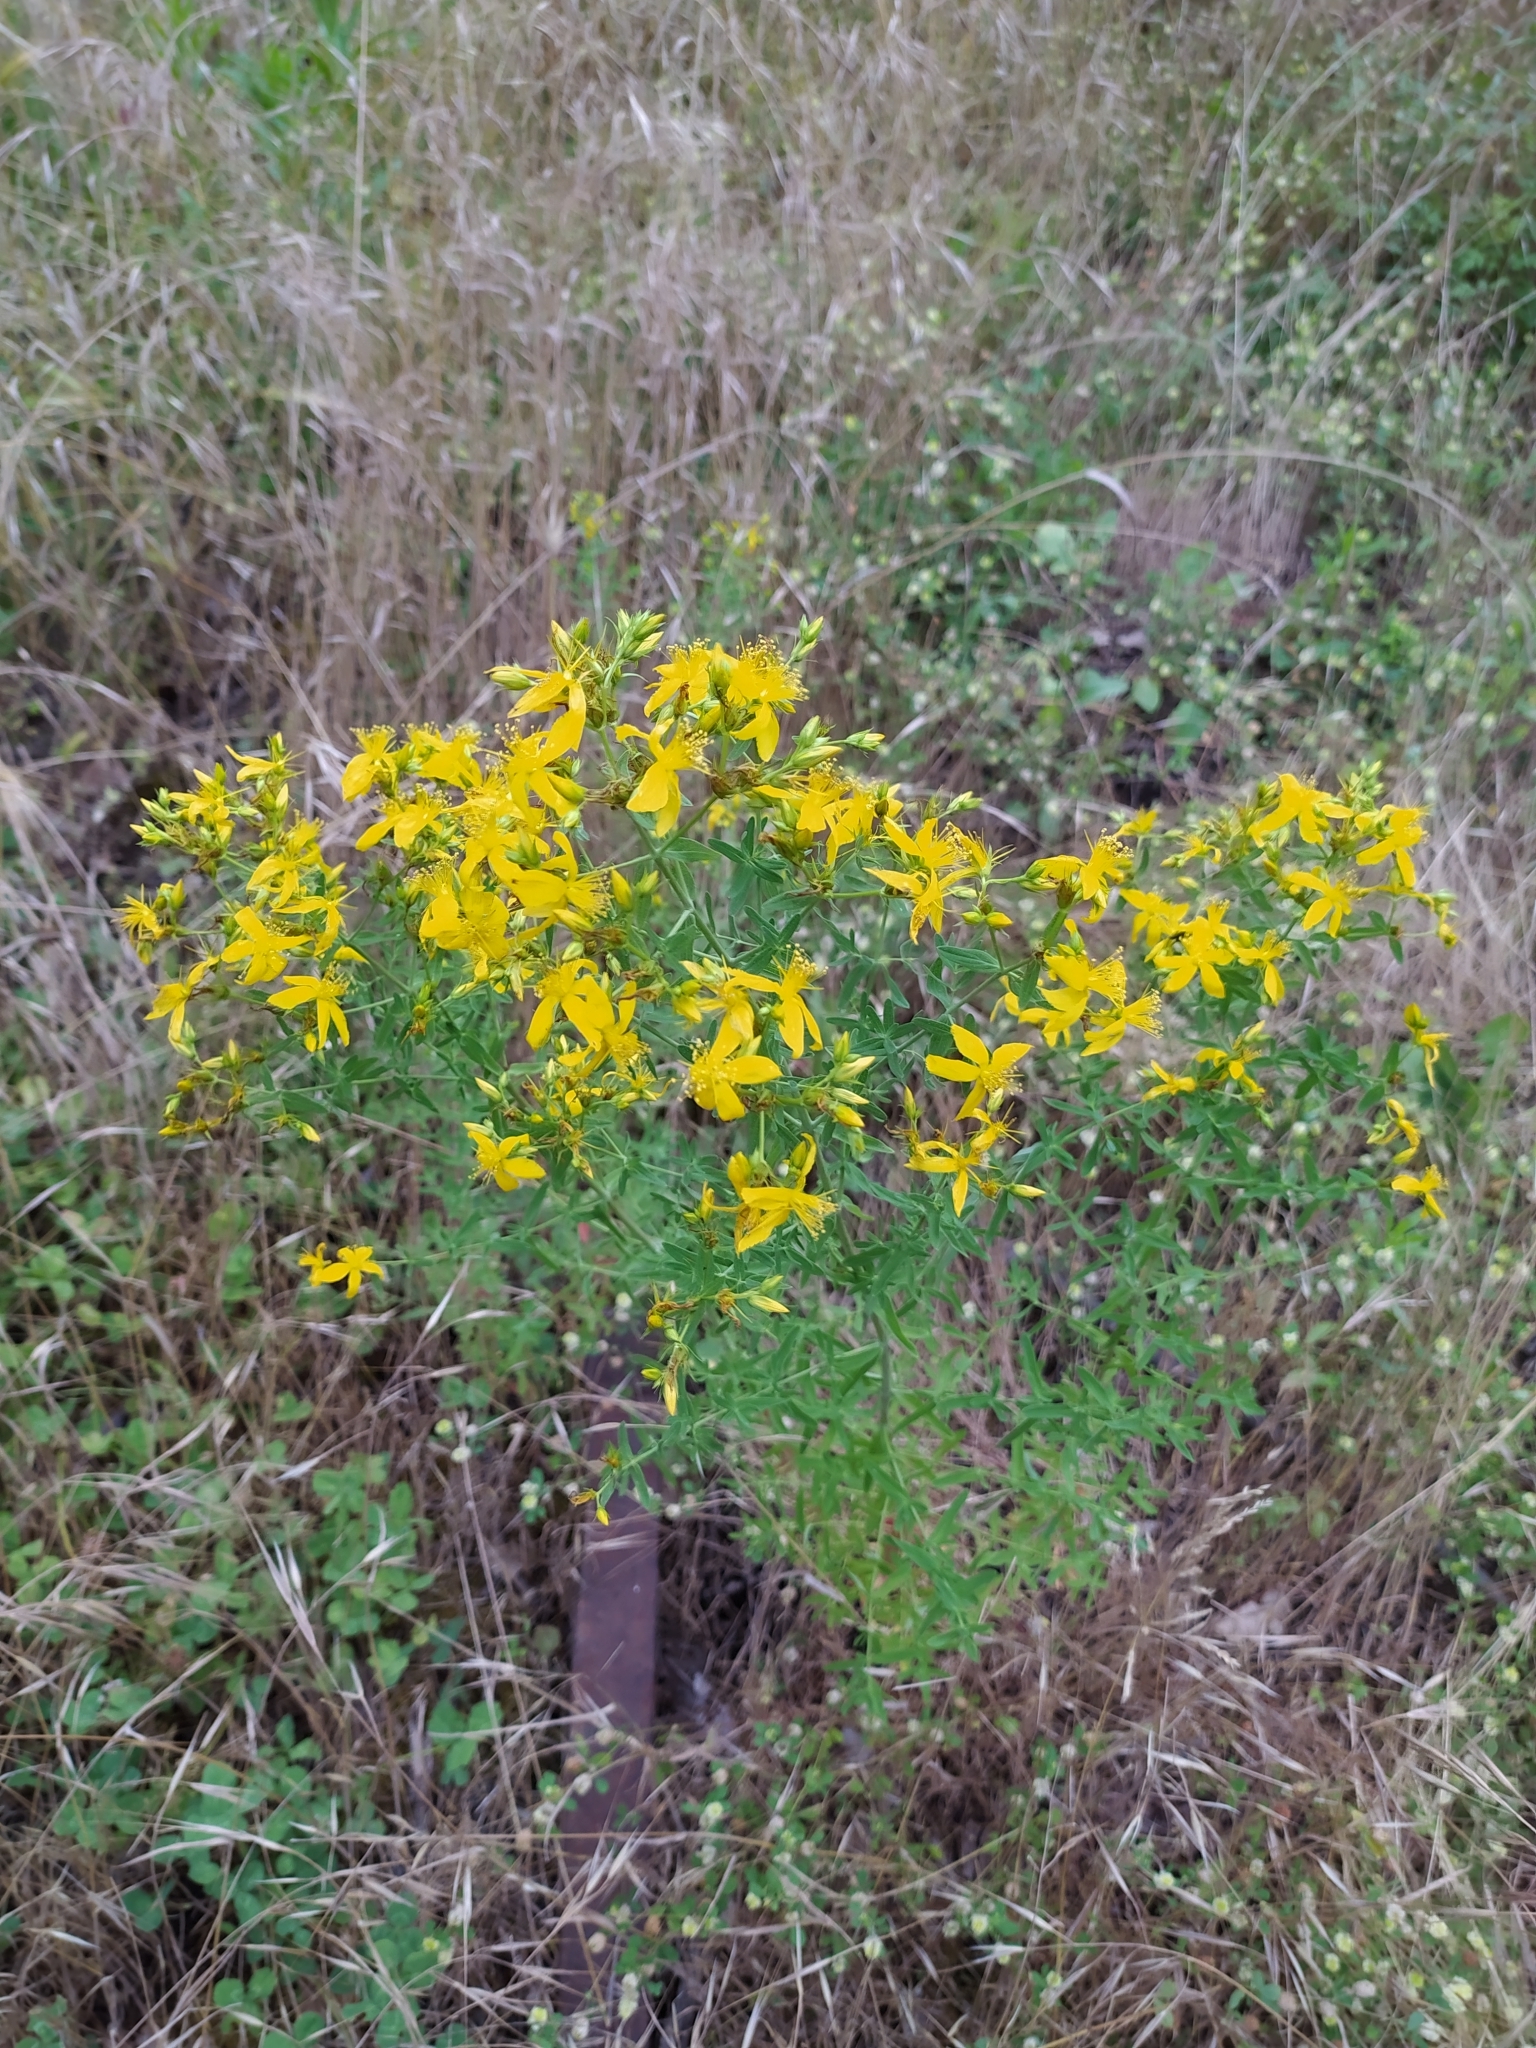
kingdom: Plantae
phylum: Tracheophyta
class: Magnoliopsida
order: Malpighiales
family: Hypericaceae
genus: Hypericum
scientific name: Hypericum perforatum
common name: Common st. johnswort
